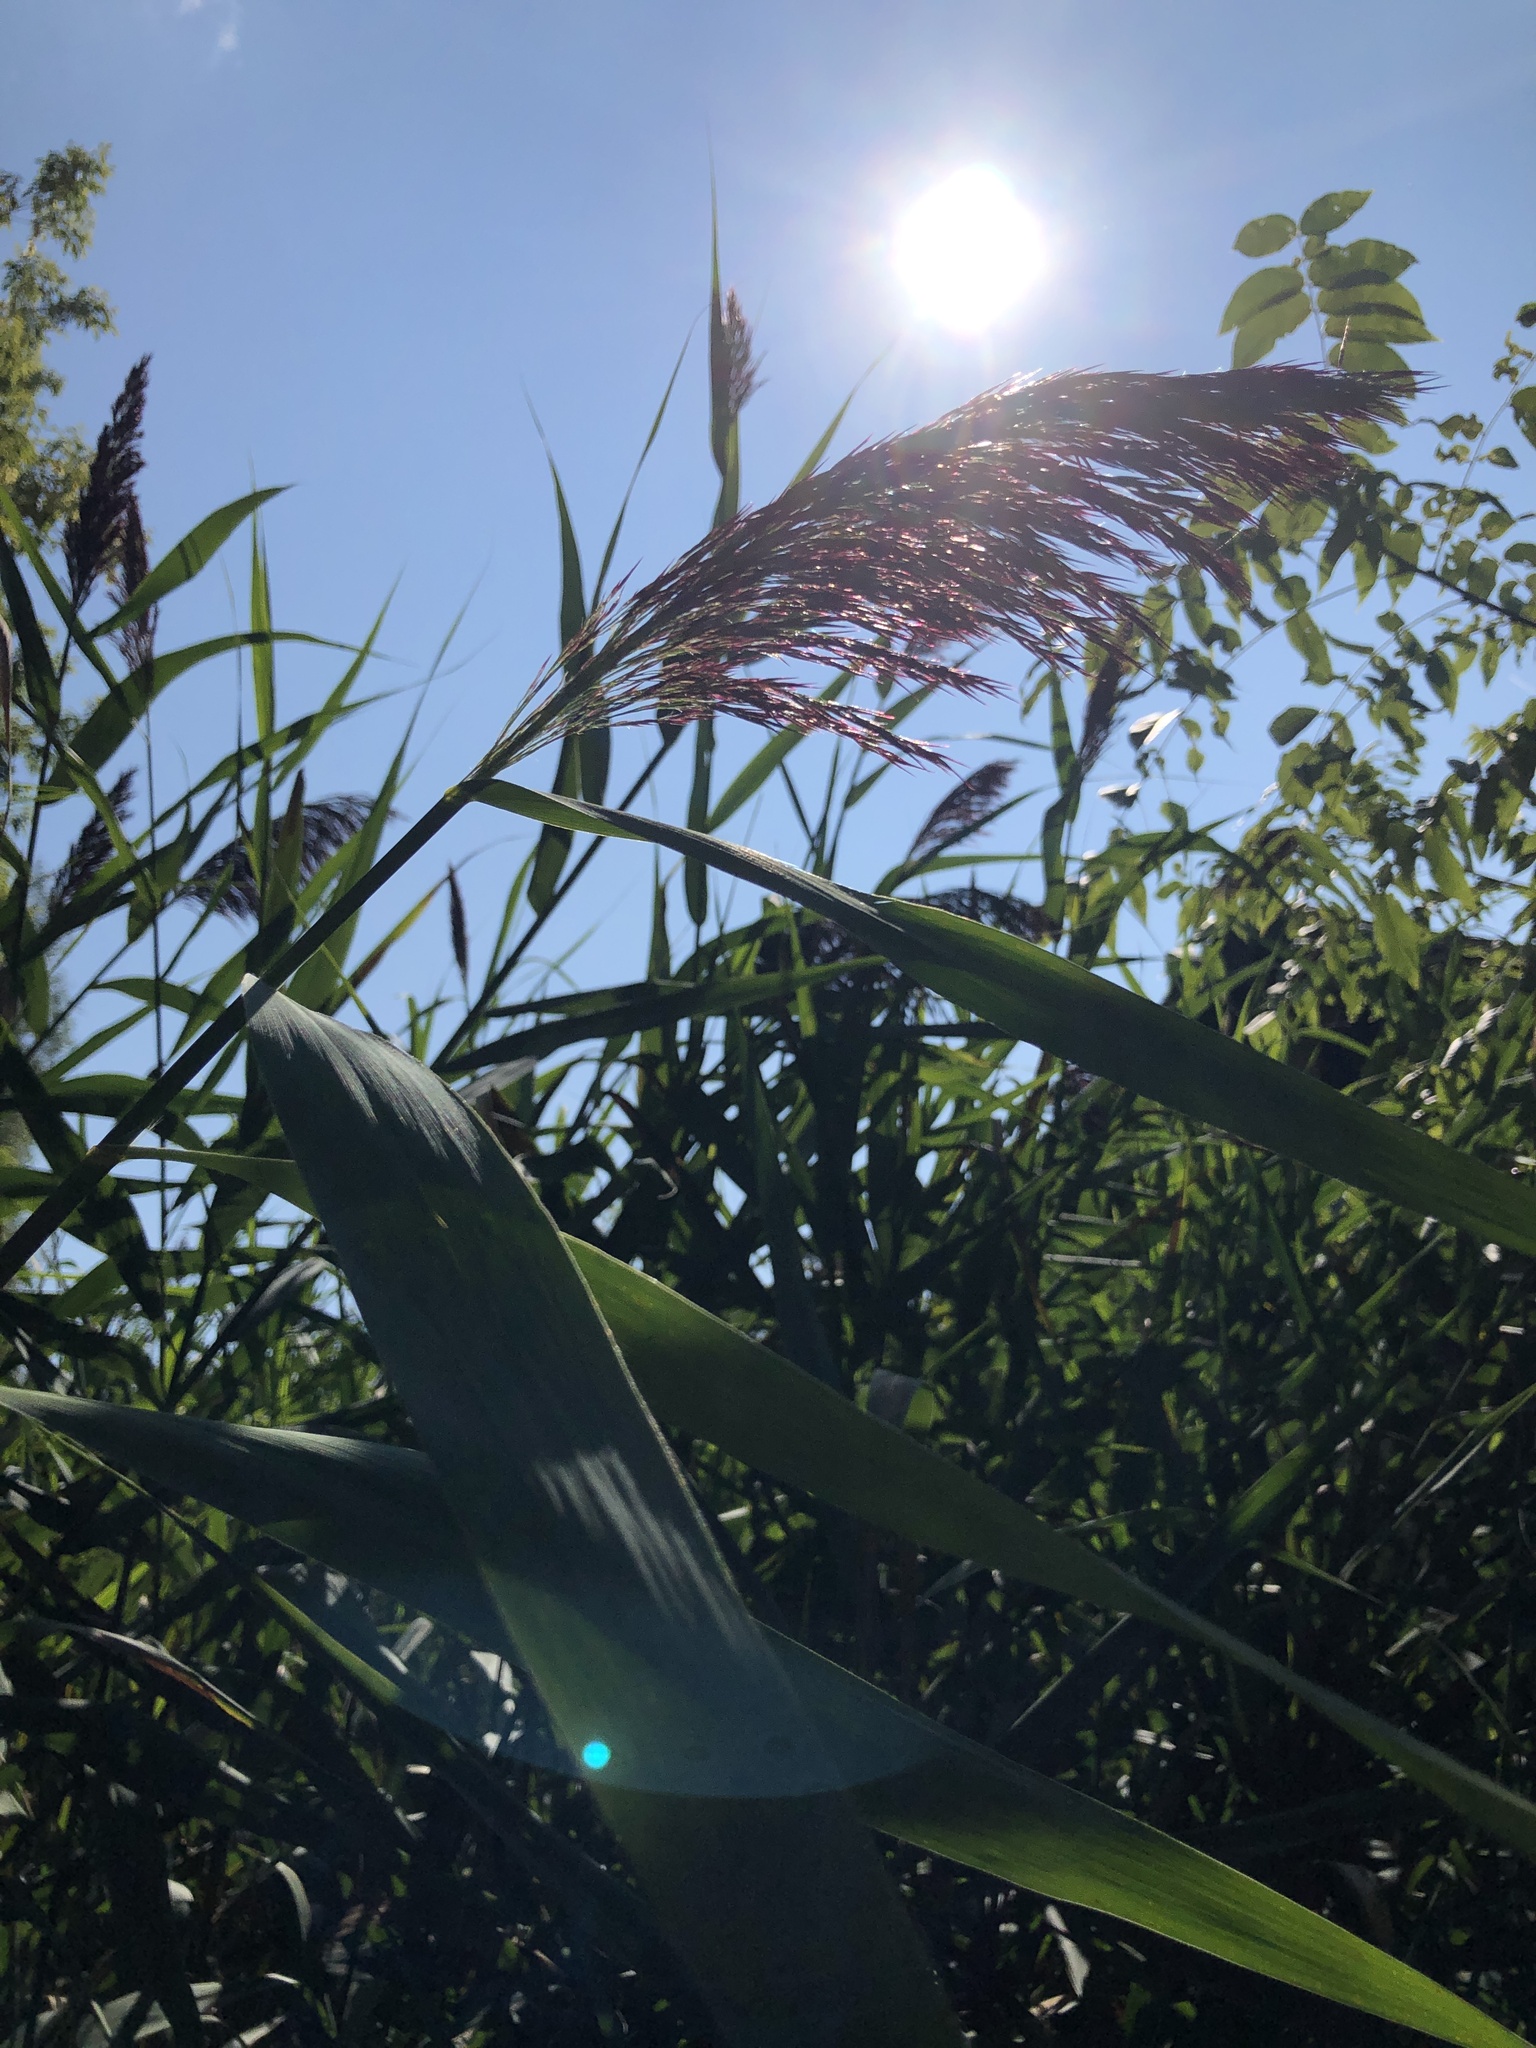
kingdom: Plantae
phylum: Tracheophyta
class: Liliopsida
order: Poales
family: Poaceae
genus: Phragmites
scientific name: Phragmites australis
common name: Common reed
